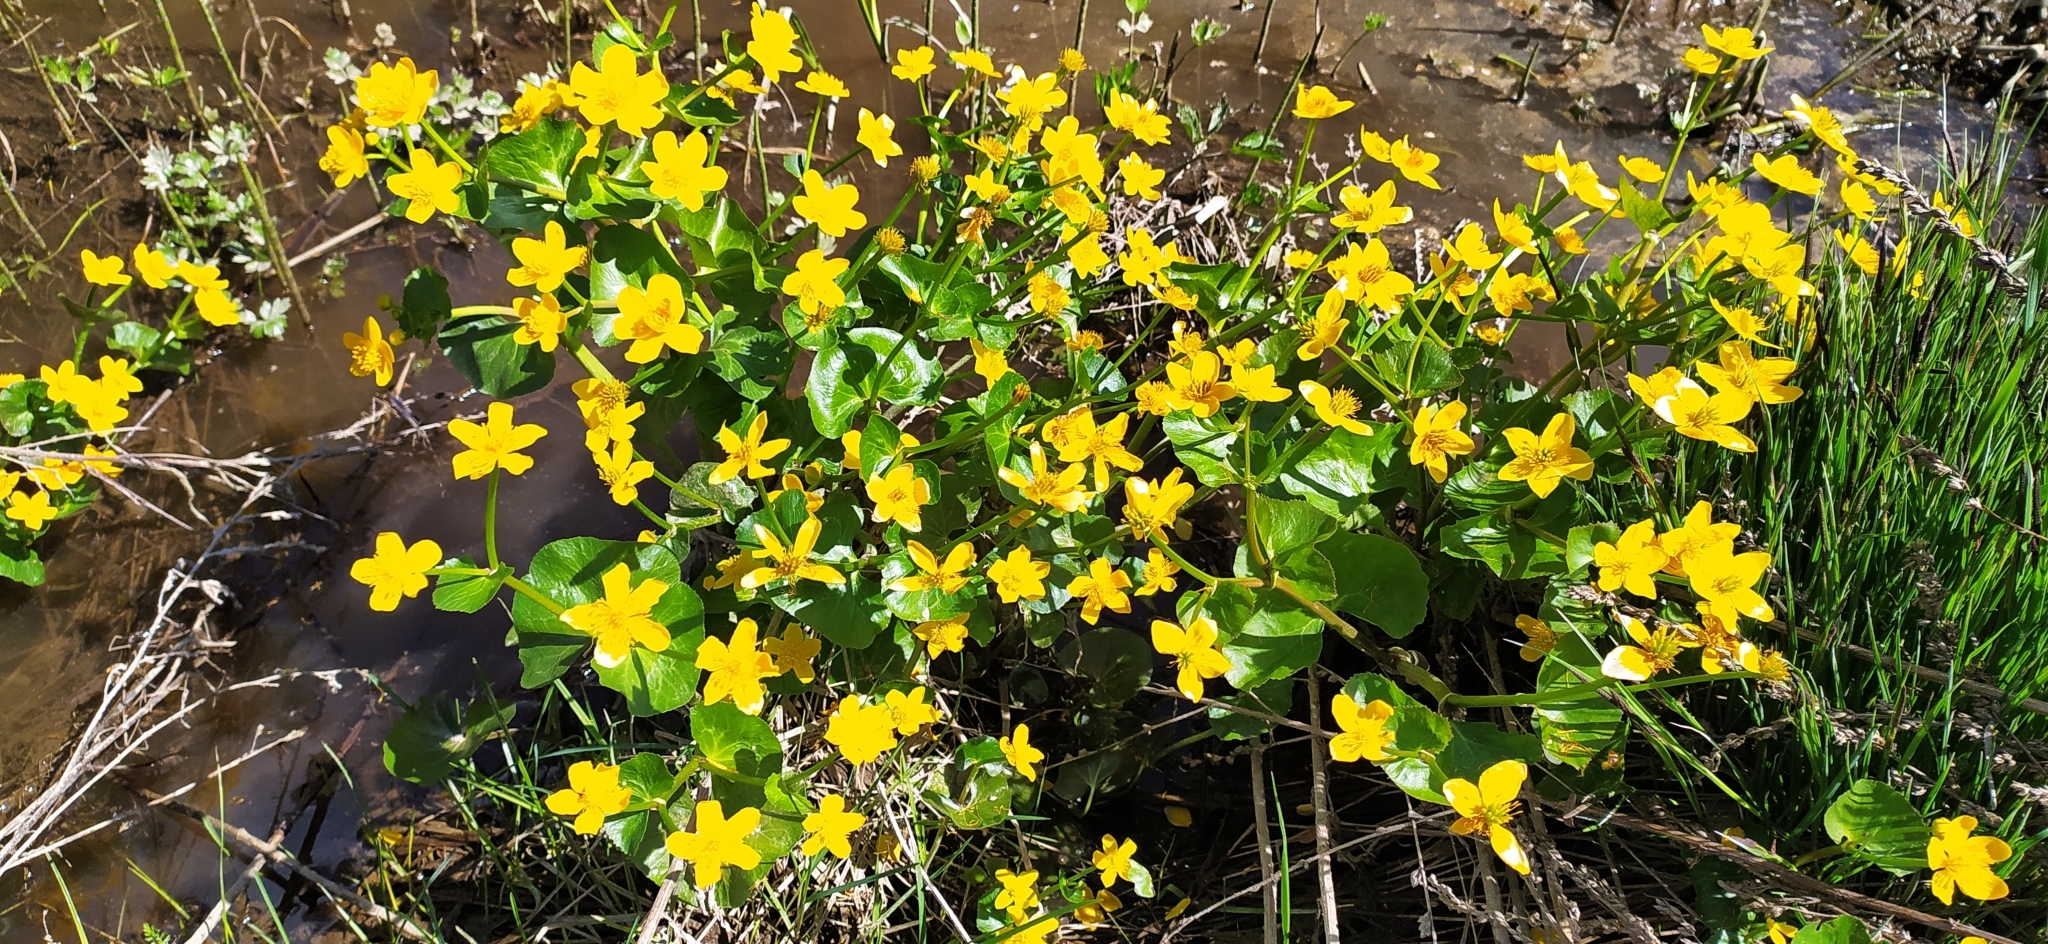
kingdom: Plantae
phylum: Tracheophyta
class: Magnoliopsida
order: Ranunculales
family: Ranunculaceae
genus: Caltha
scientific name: Caltha palustris
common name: Marsh marigold
